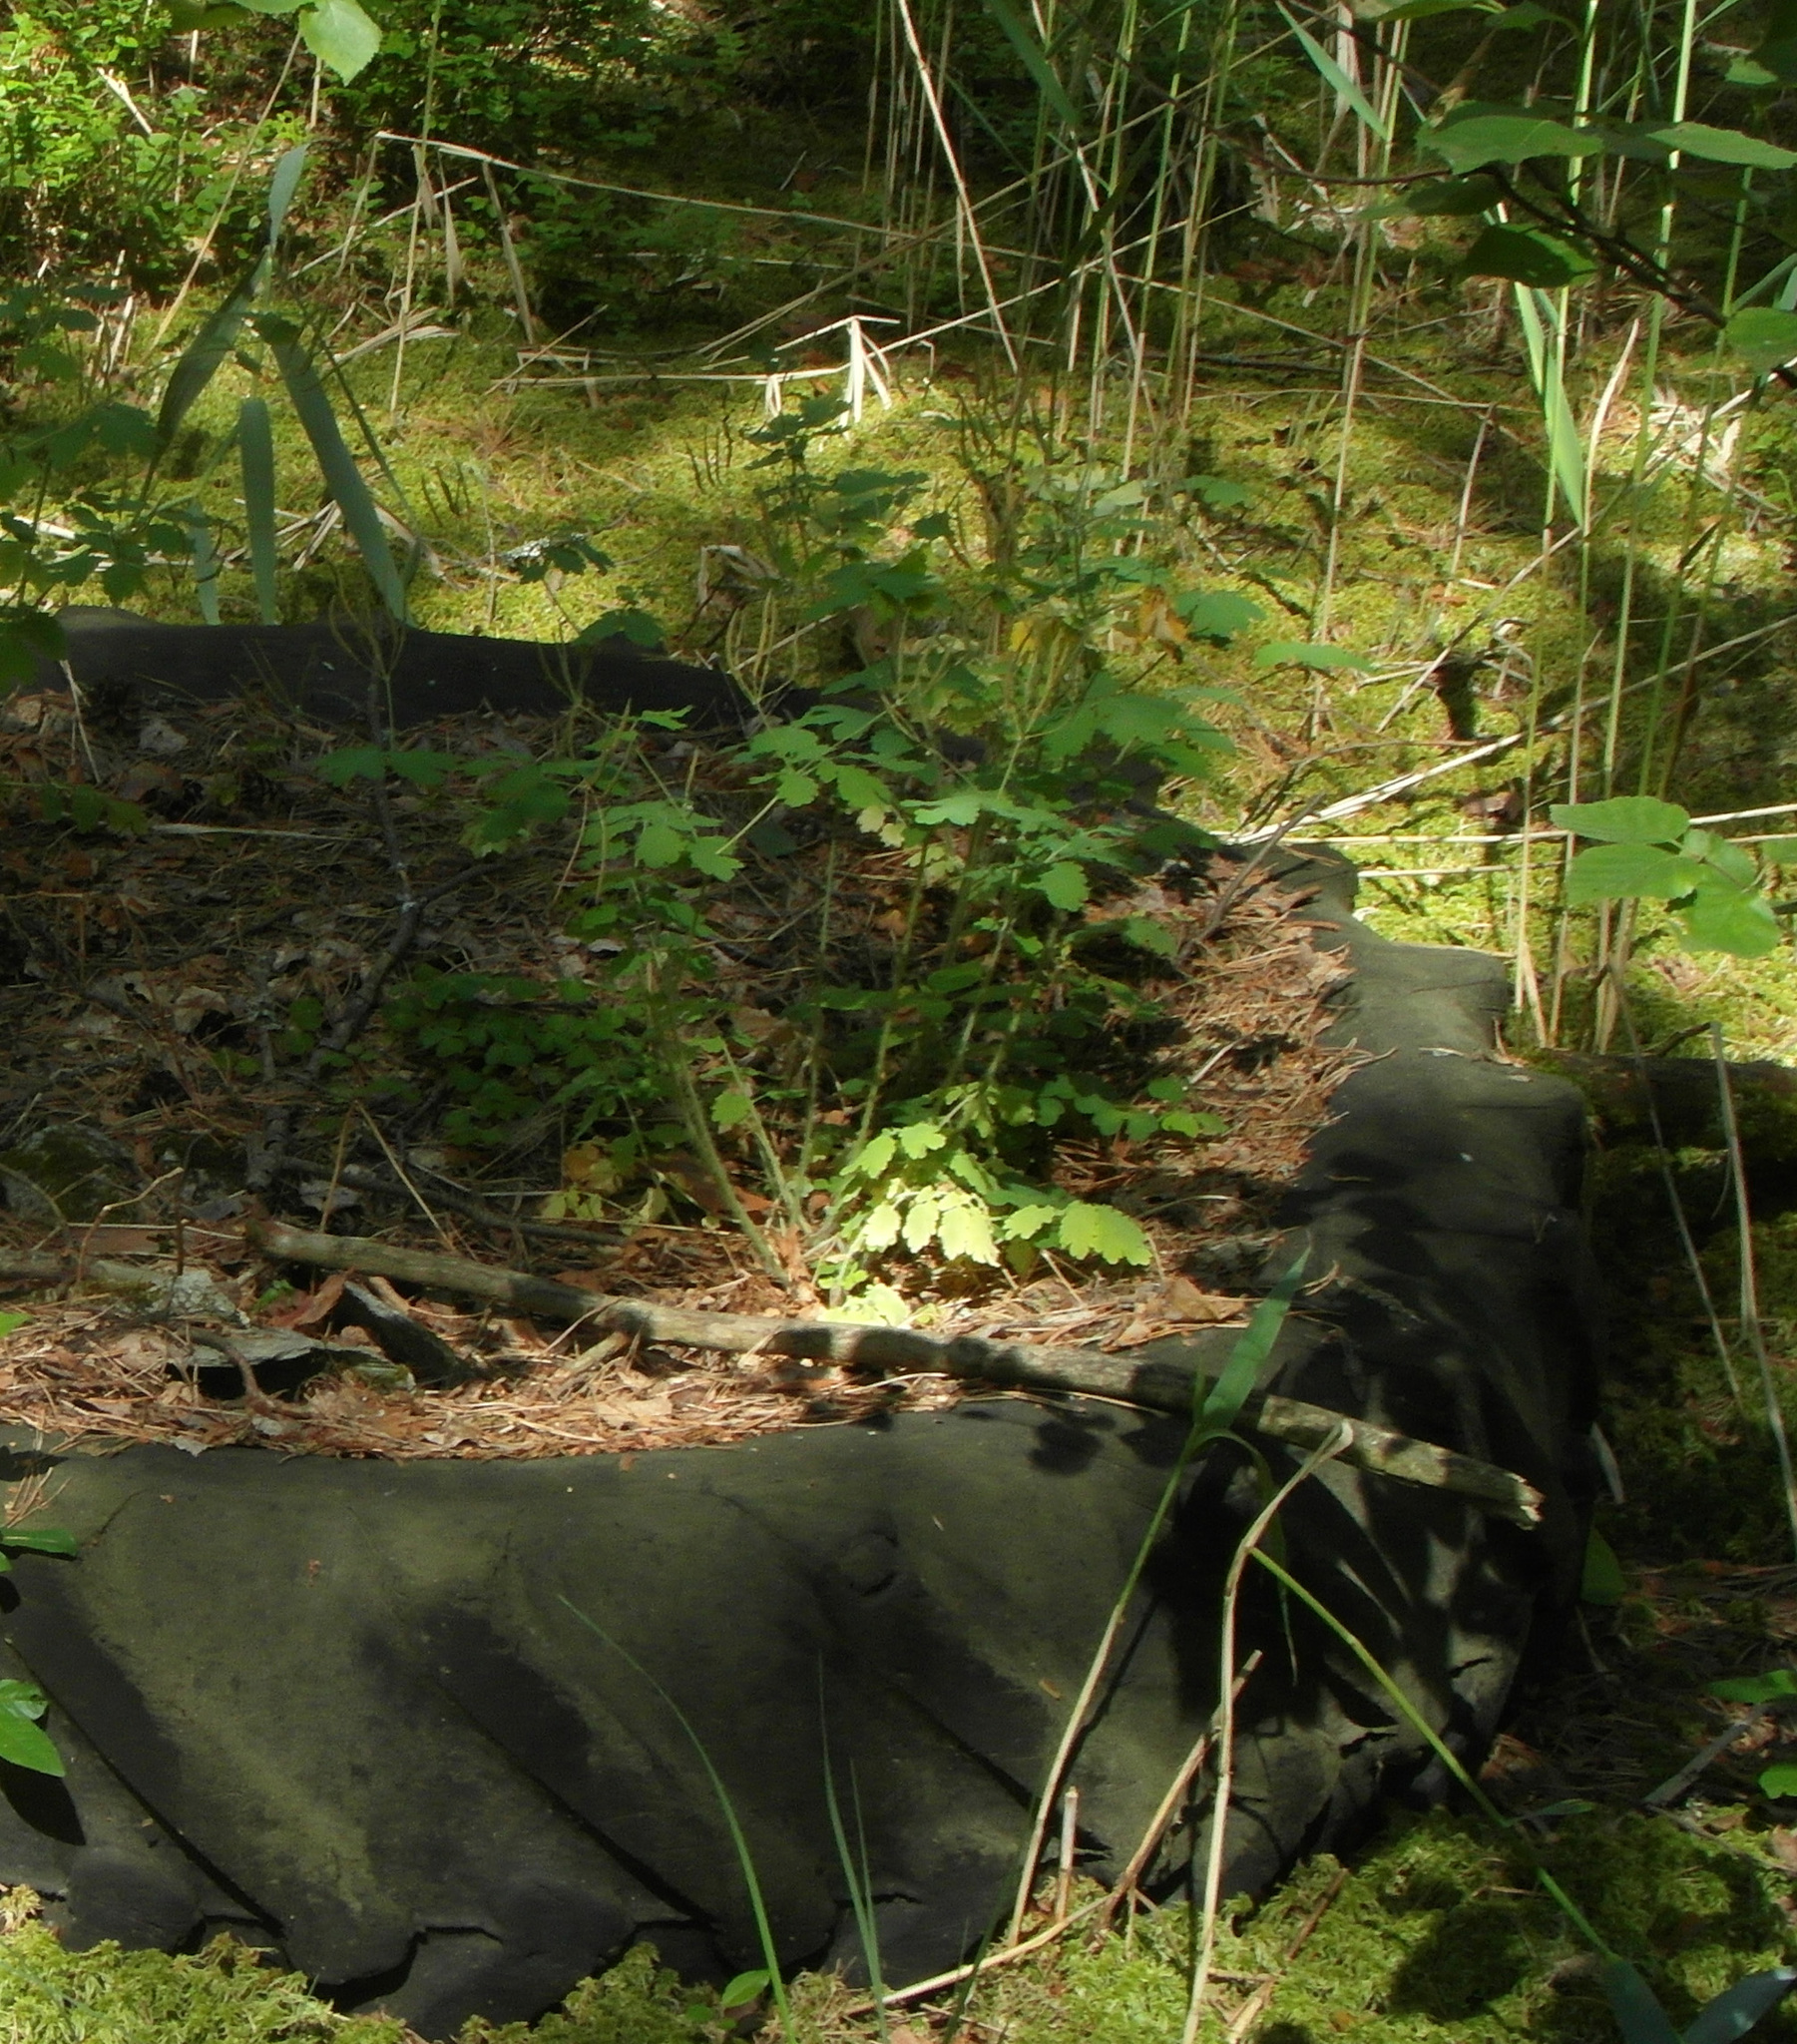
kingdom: Plantae
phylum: Tracheophyta
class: Magnoliopsida
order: Ranunculales
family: Papaveraceae
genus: Chelidonium
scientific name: Chelidonium majus
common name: Greater celandine
